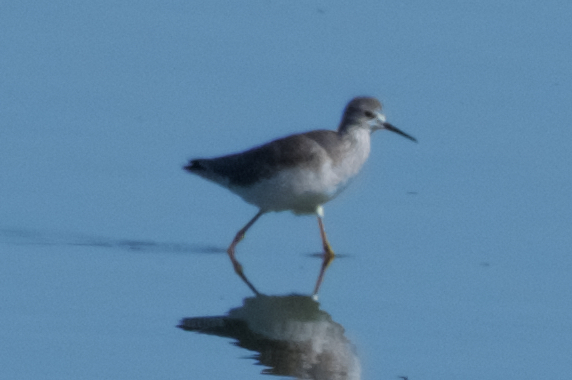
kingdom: Animalia
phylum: Chordata
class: Aves
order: Charadriiformes
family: Scolopacidae
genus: Tringa
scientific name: Tringa flavipes
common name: Lesser yellowlegs
